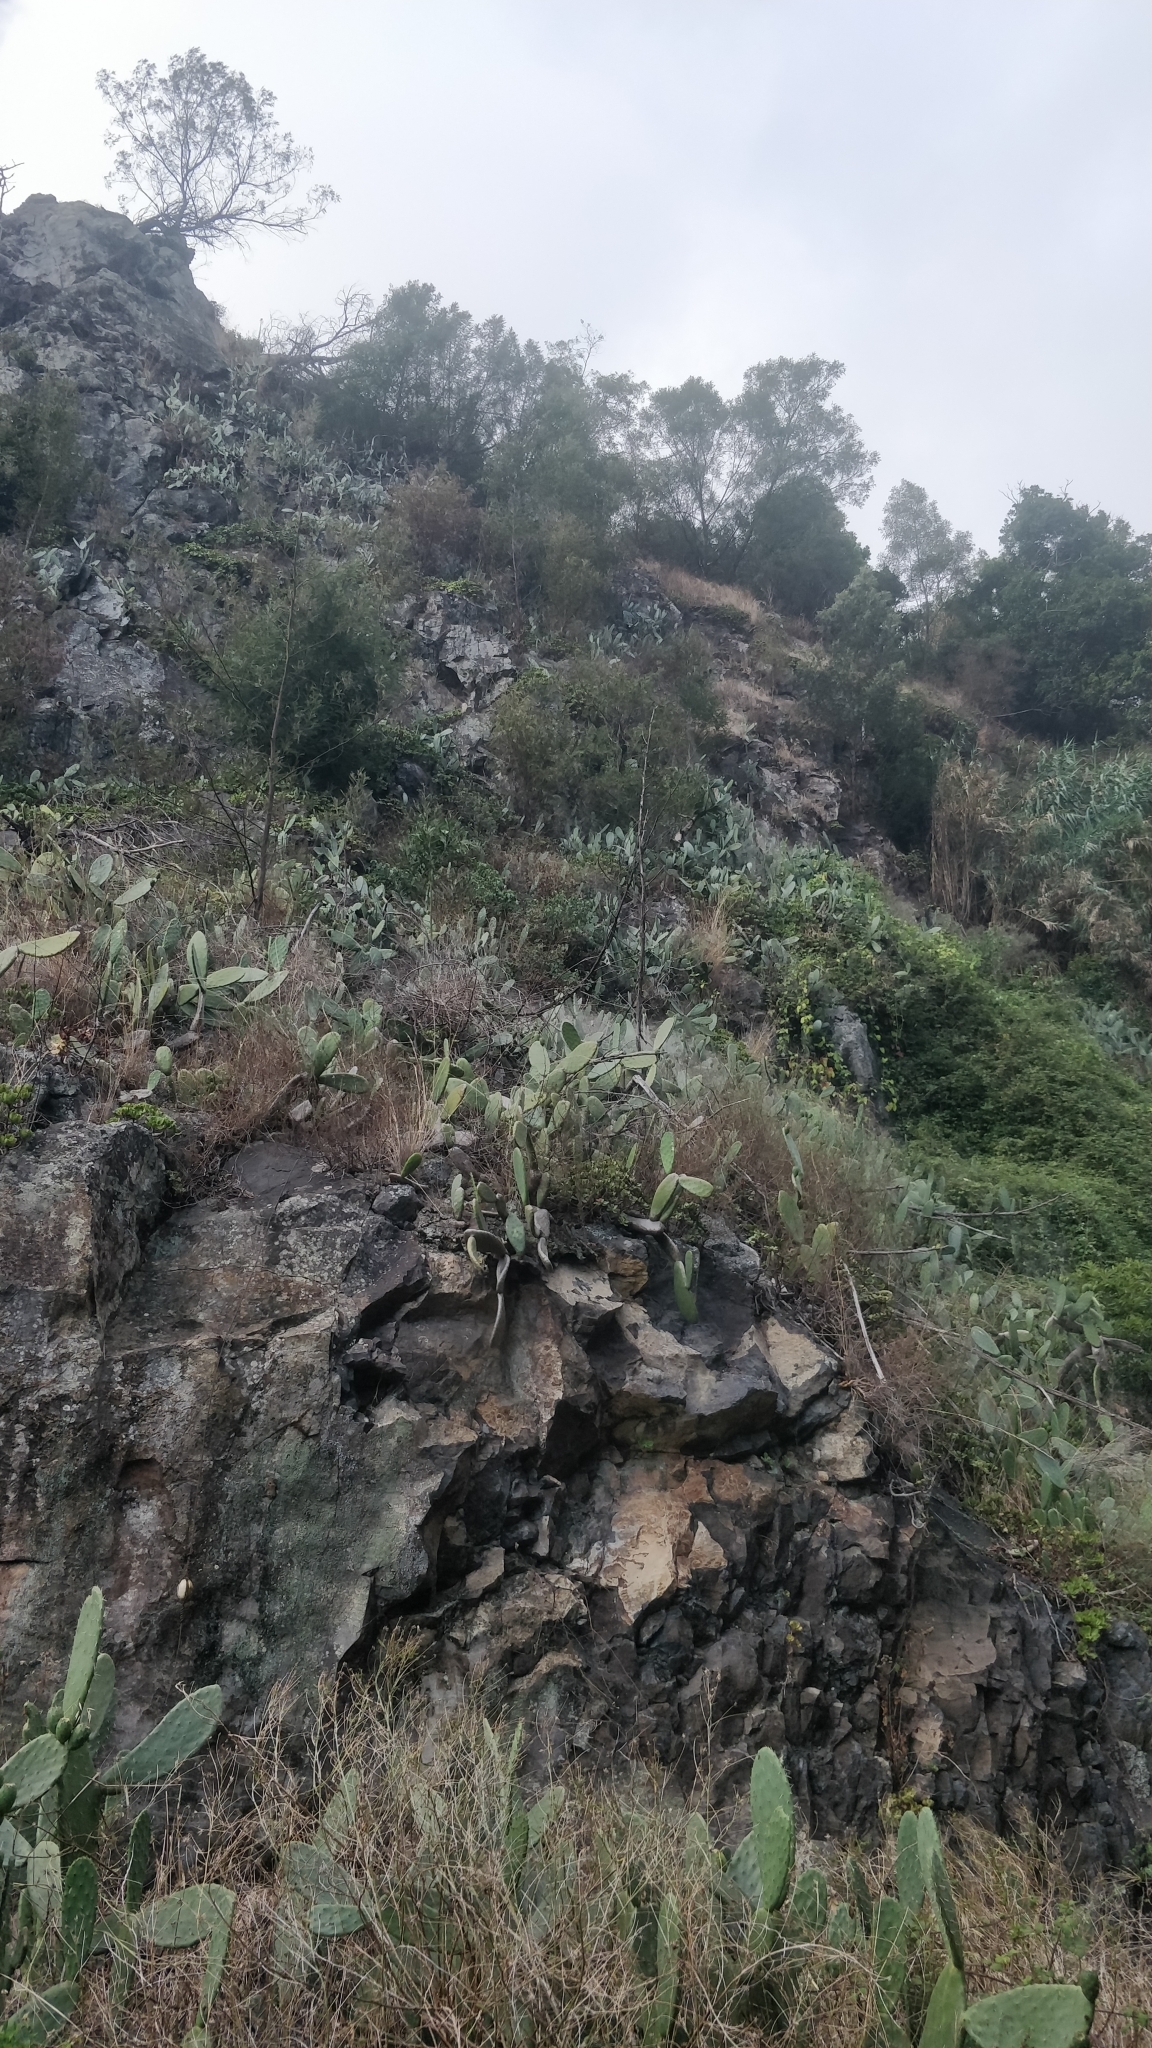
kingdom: Plantae
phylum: Tracheophyta
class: Magnoliopsida
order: Caryophyllales
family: Cactaceae
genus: Opuntia
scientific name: Opuntia ficus-indica
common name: Barbary fig
